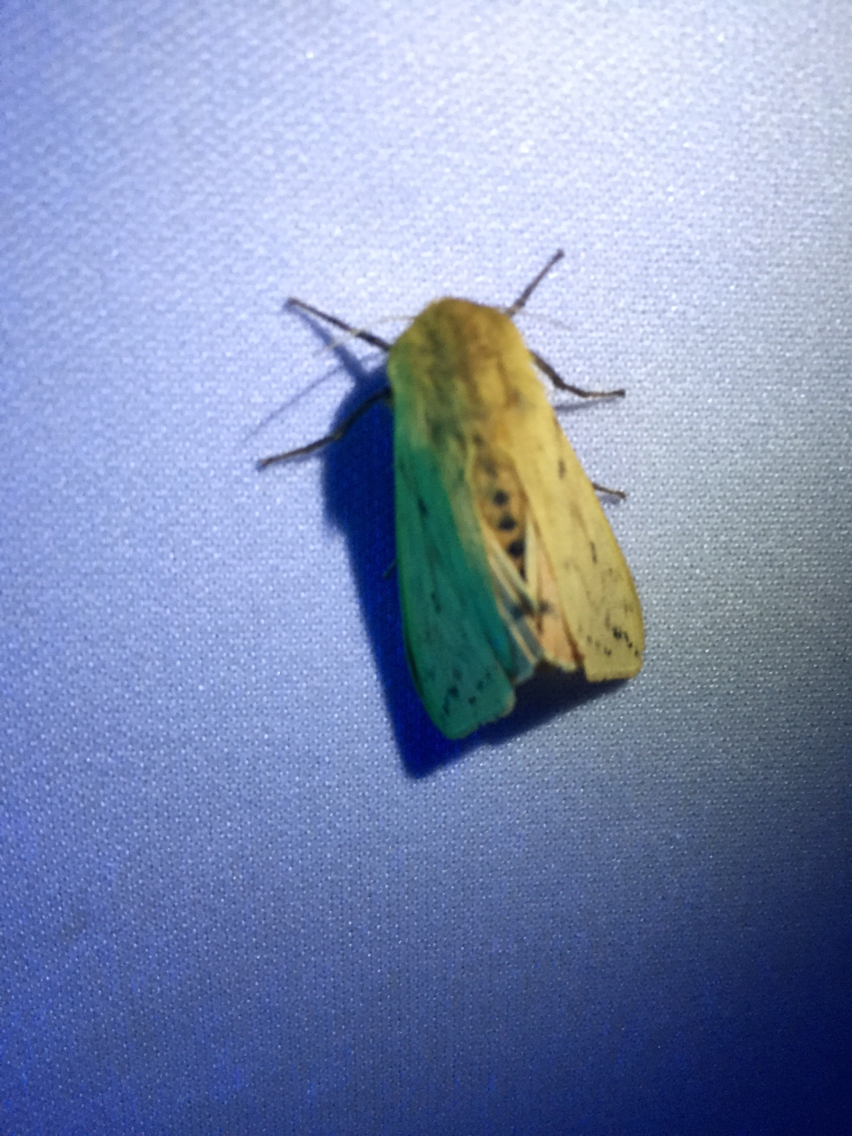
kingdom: Animalia
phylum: Arthropoda
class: Insecta
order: Lepidoptera
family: Erebidae
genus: Pyrrharctia
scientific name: Pyrrharctia isabella
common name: Isabella tiger moth
